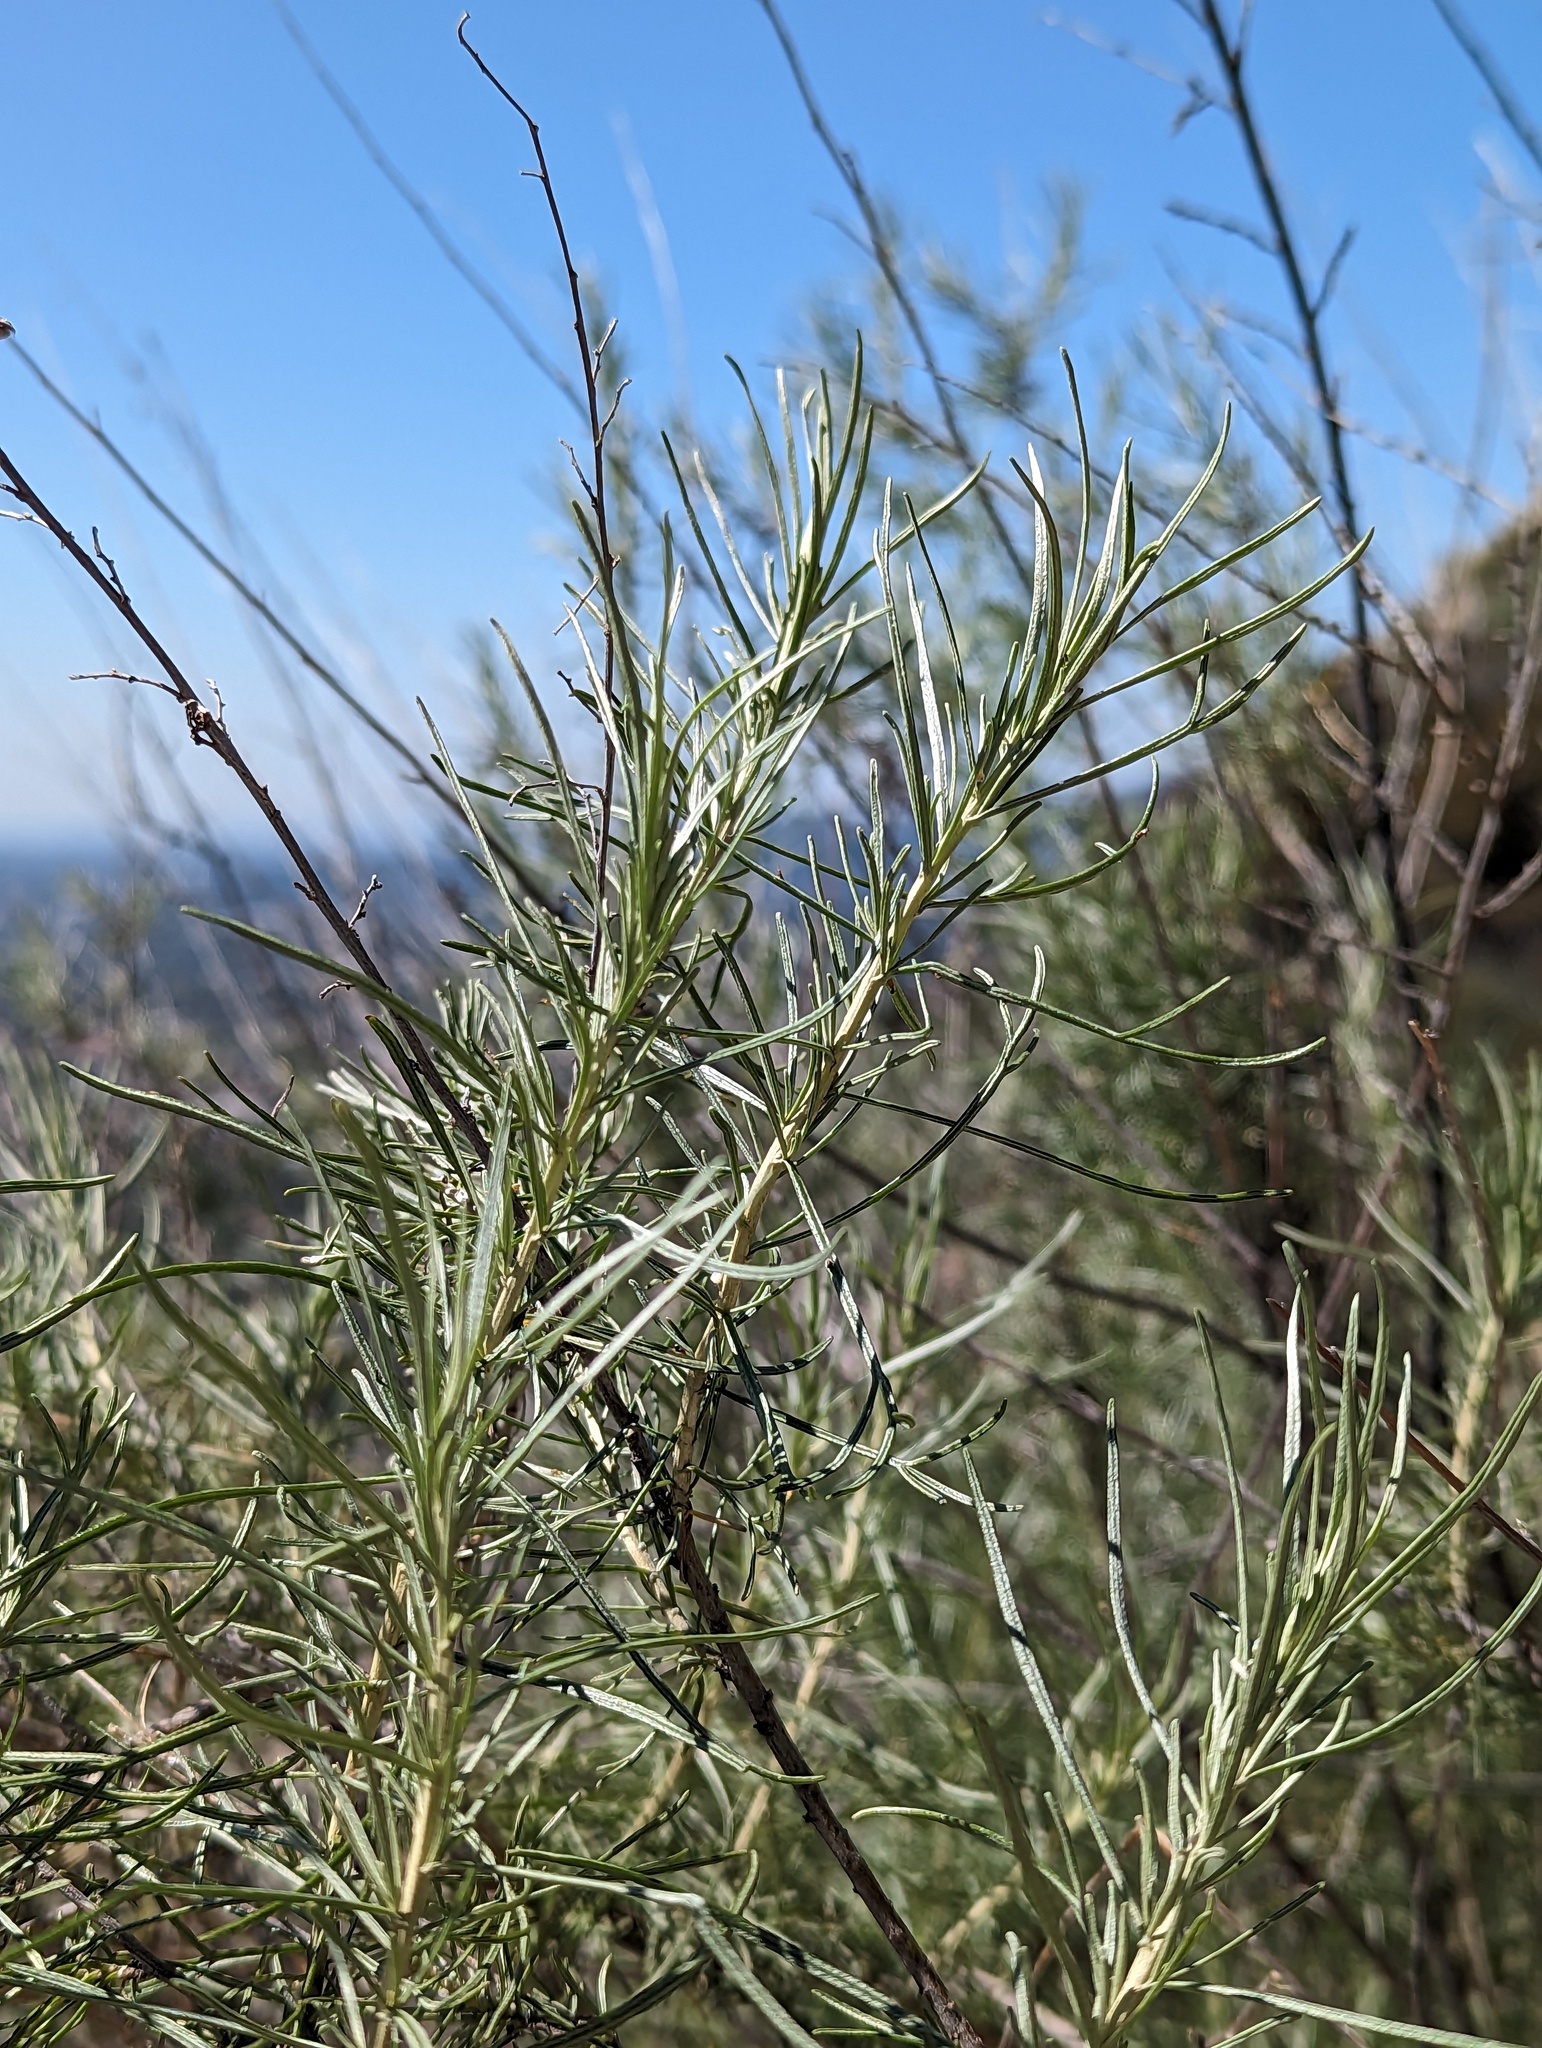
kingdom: Plantae
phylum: Tracheophyta
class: Magnoliopsida
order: Asterales
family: Asteraceae
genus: Artemisia
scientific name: Artemisia californica
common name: California sagebrush
